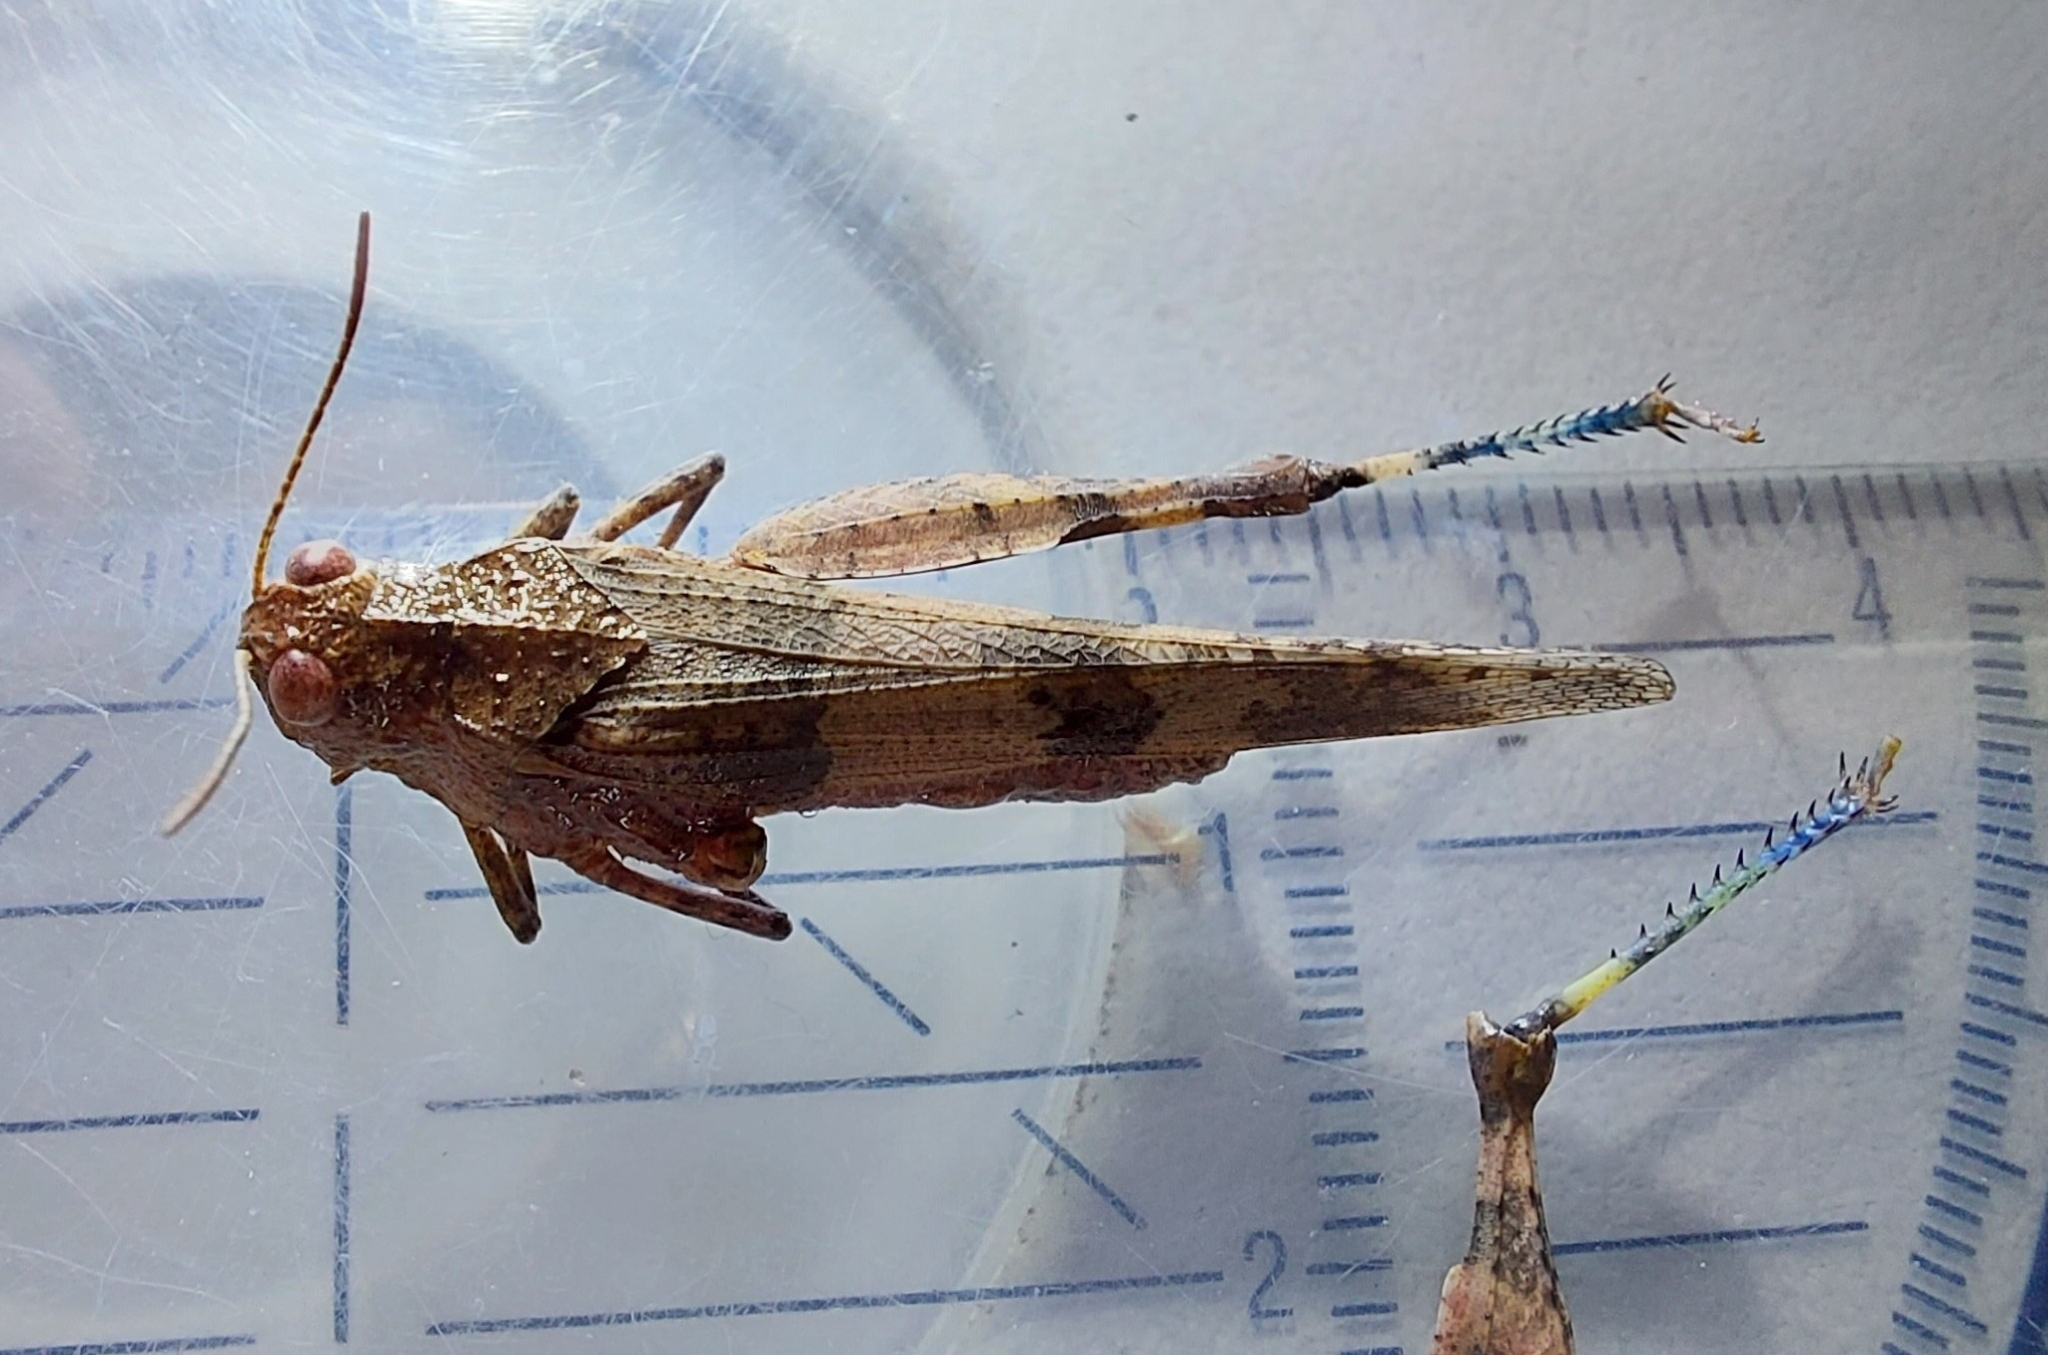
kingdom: Animalia
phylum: Arthropoda
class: Insecta
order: Orthoptera
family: Acrididae
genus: Oedipoda
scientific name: Oedipoda caerulescens
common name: Blue-winged grasshopper
